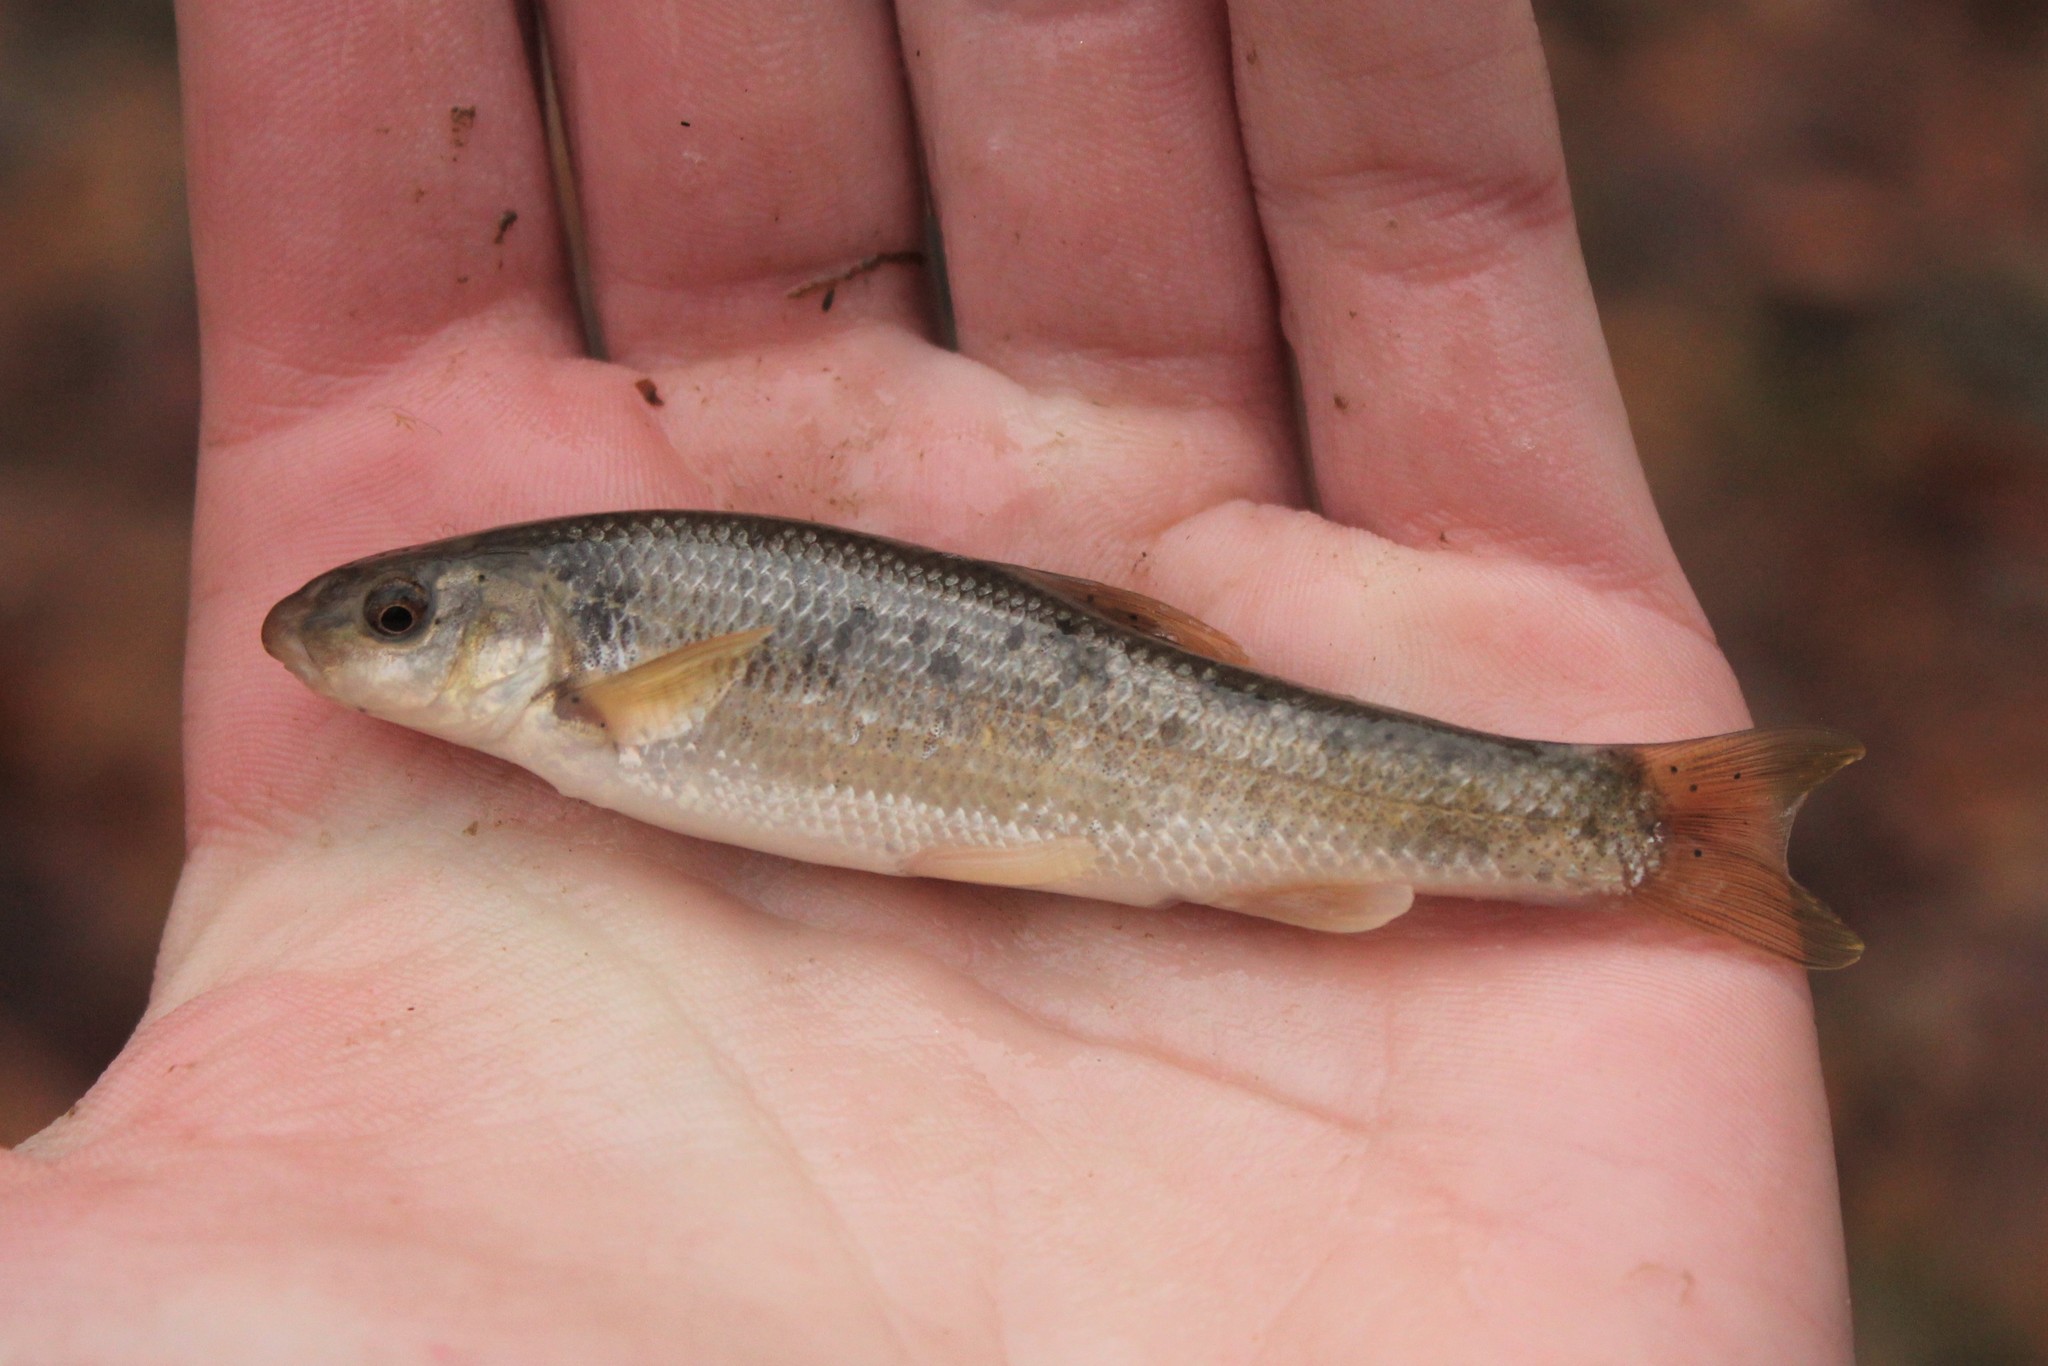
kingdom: Animalia
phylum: Chordata
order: Cypriniformes
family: Cyprinidae
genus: Campostoma
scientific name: Campostoma anomalum
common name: Central stoneroller
